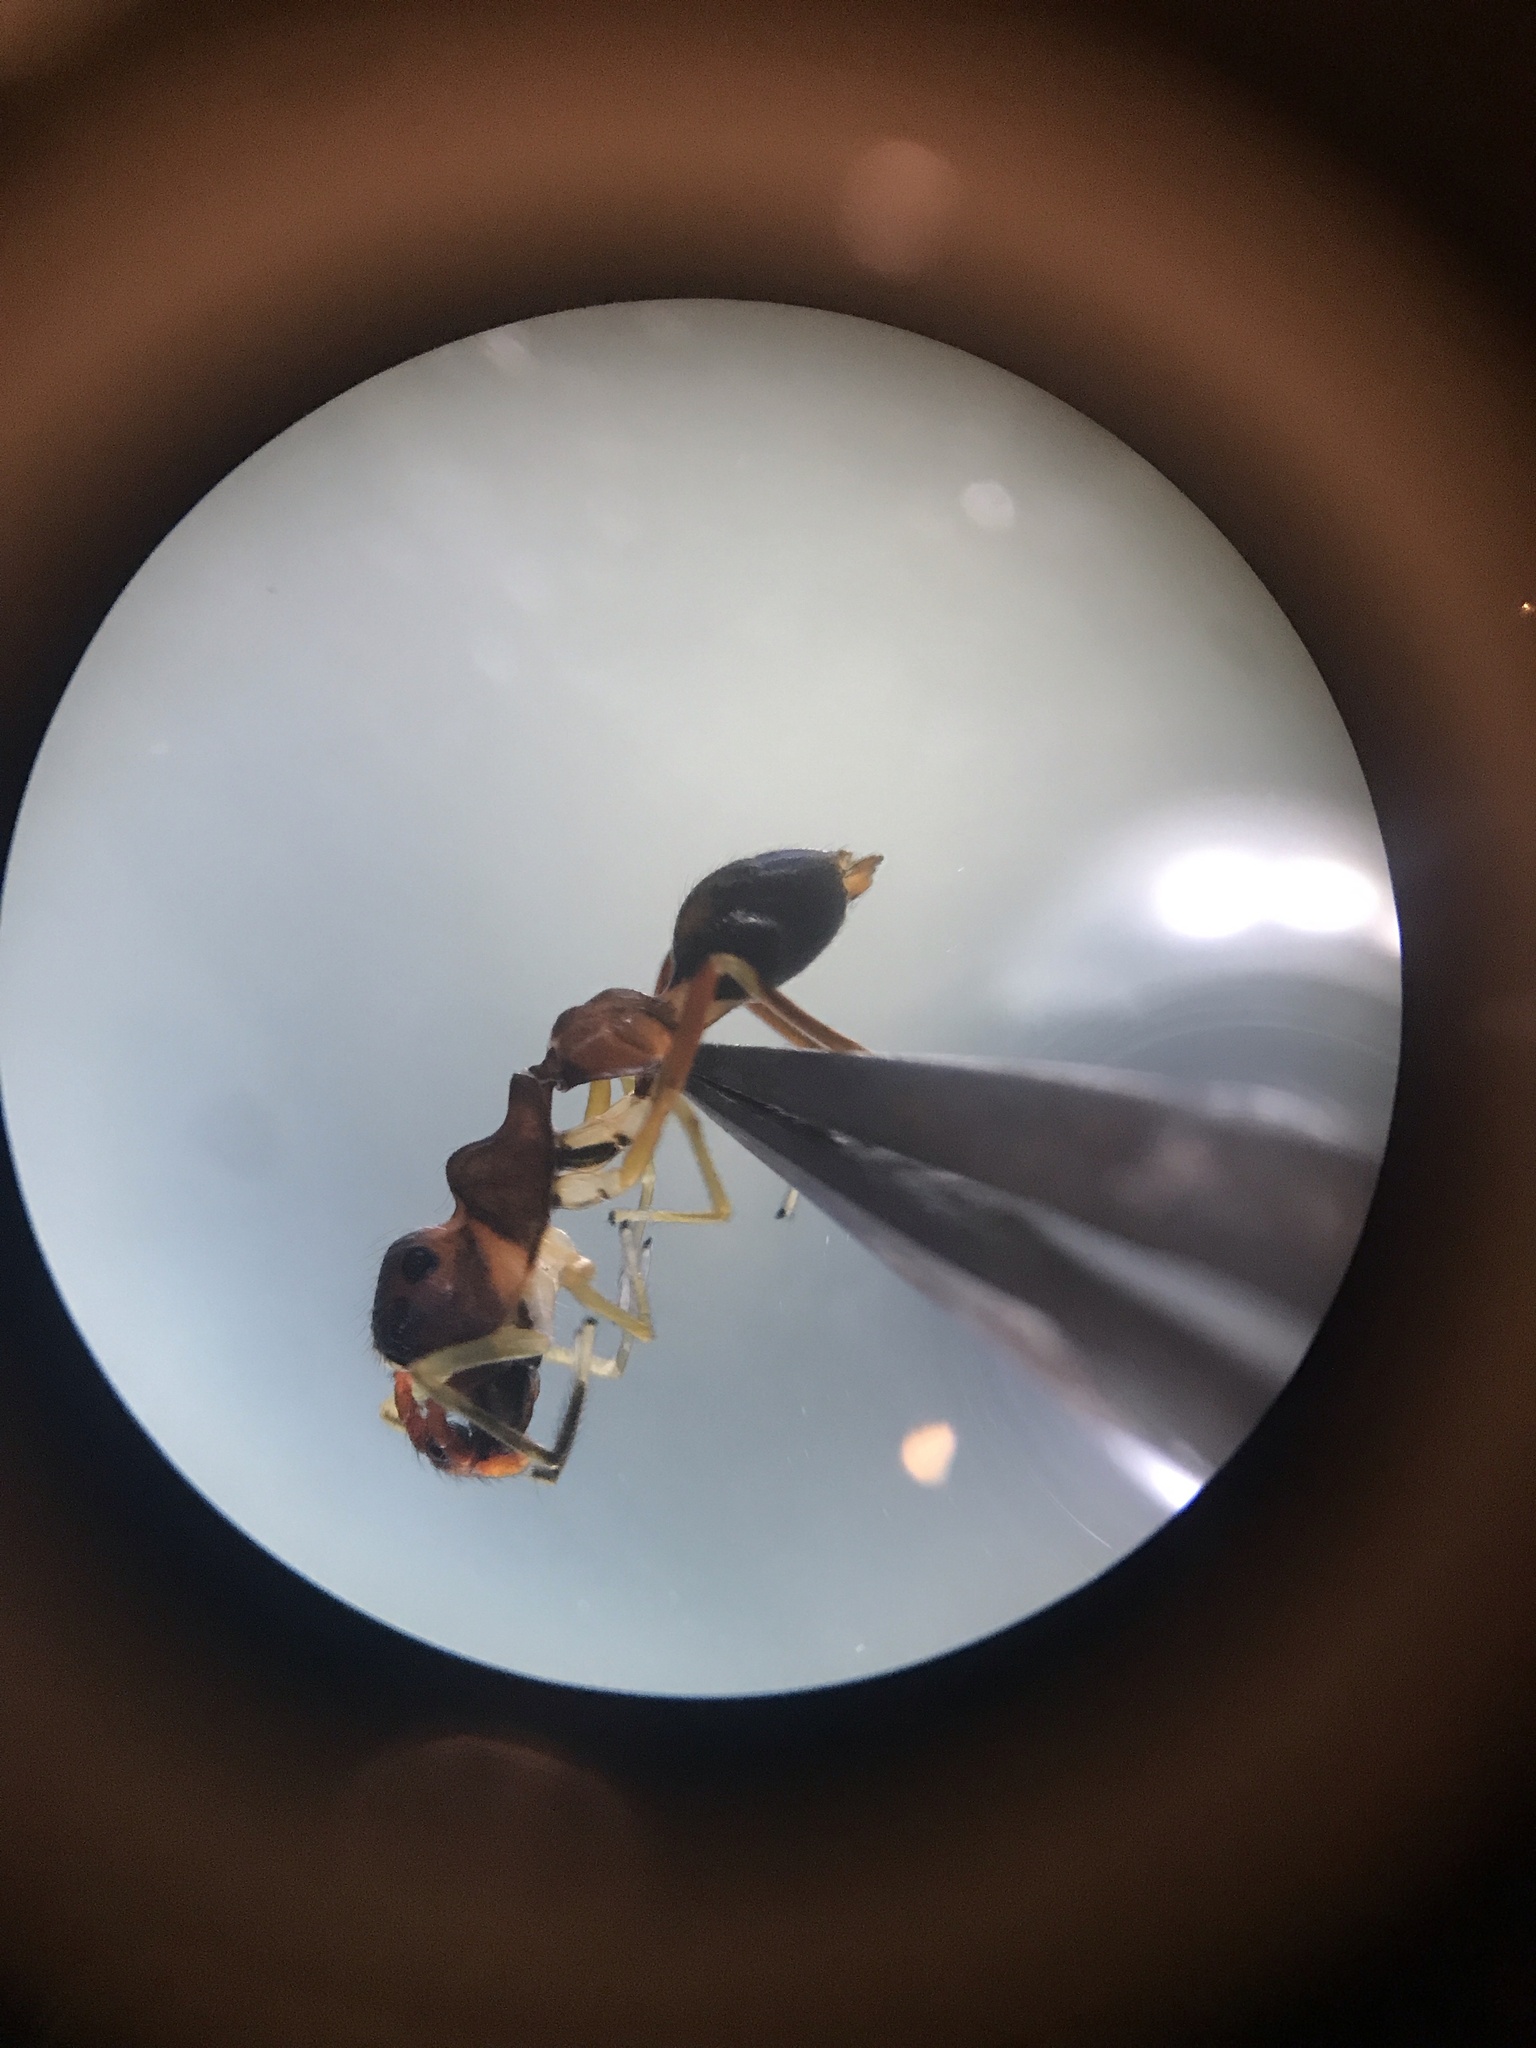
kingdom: Animalia
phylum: Arthropoda
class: Arachnida
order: Araneae
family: Salticidae
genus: Synemosyna
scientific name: Synemosyna formica
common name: Slender ant-mimic jumping spider
